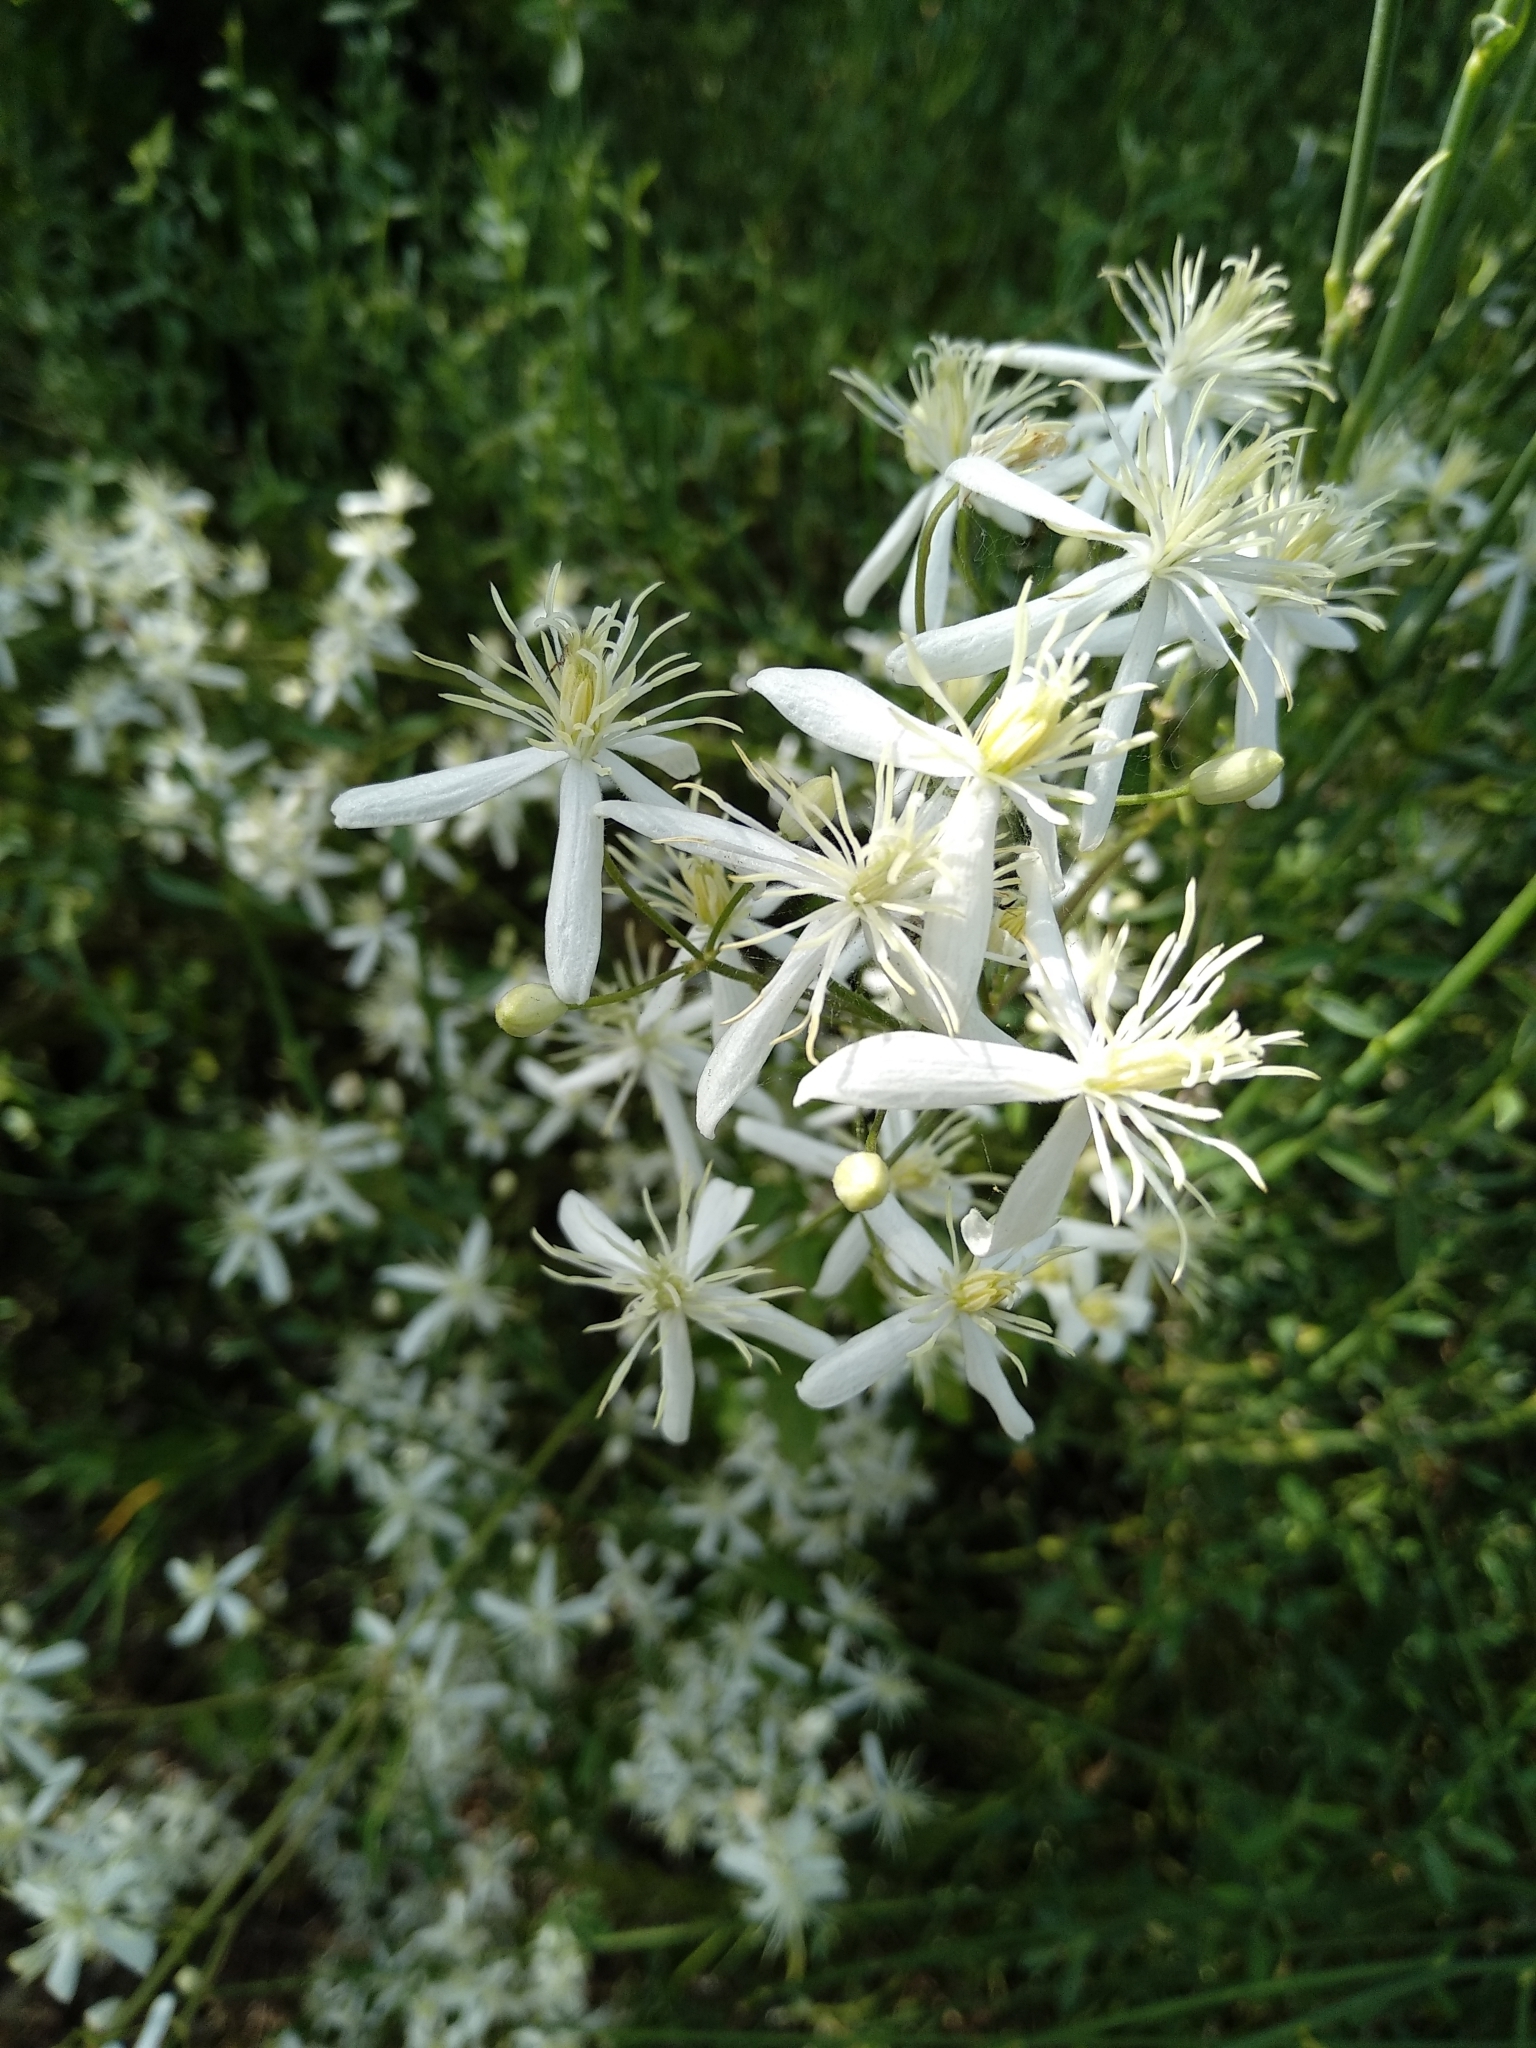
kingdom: Plantae
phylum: Tracheophyta
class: Magnoliopsida
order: Ranunculales
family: Ranunculaceae
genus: Clematis
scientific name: Clematis flammula
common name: Virgin's-bower
